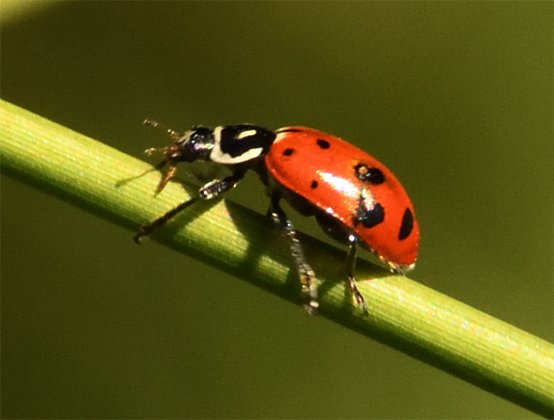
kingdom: Animalia
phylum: Arthropoda
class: Insecta
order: Coleoptera
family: Coccinellidae
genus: Hippodamia
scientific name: Hippodamia convergens
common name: Convergent lady beetle
